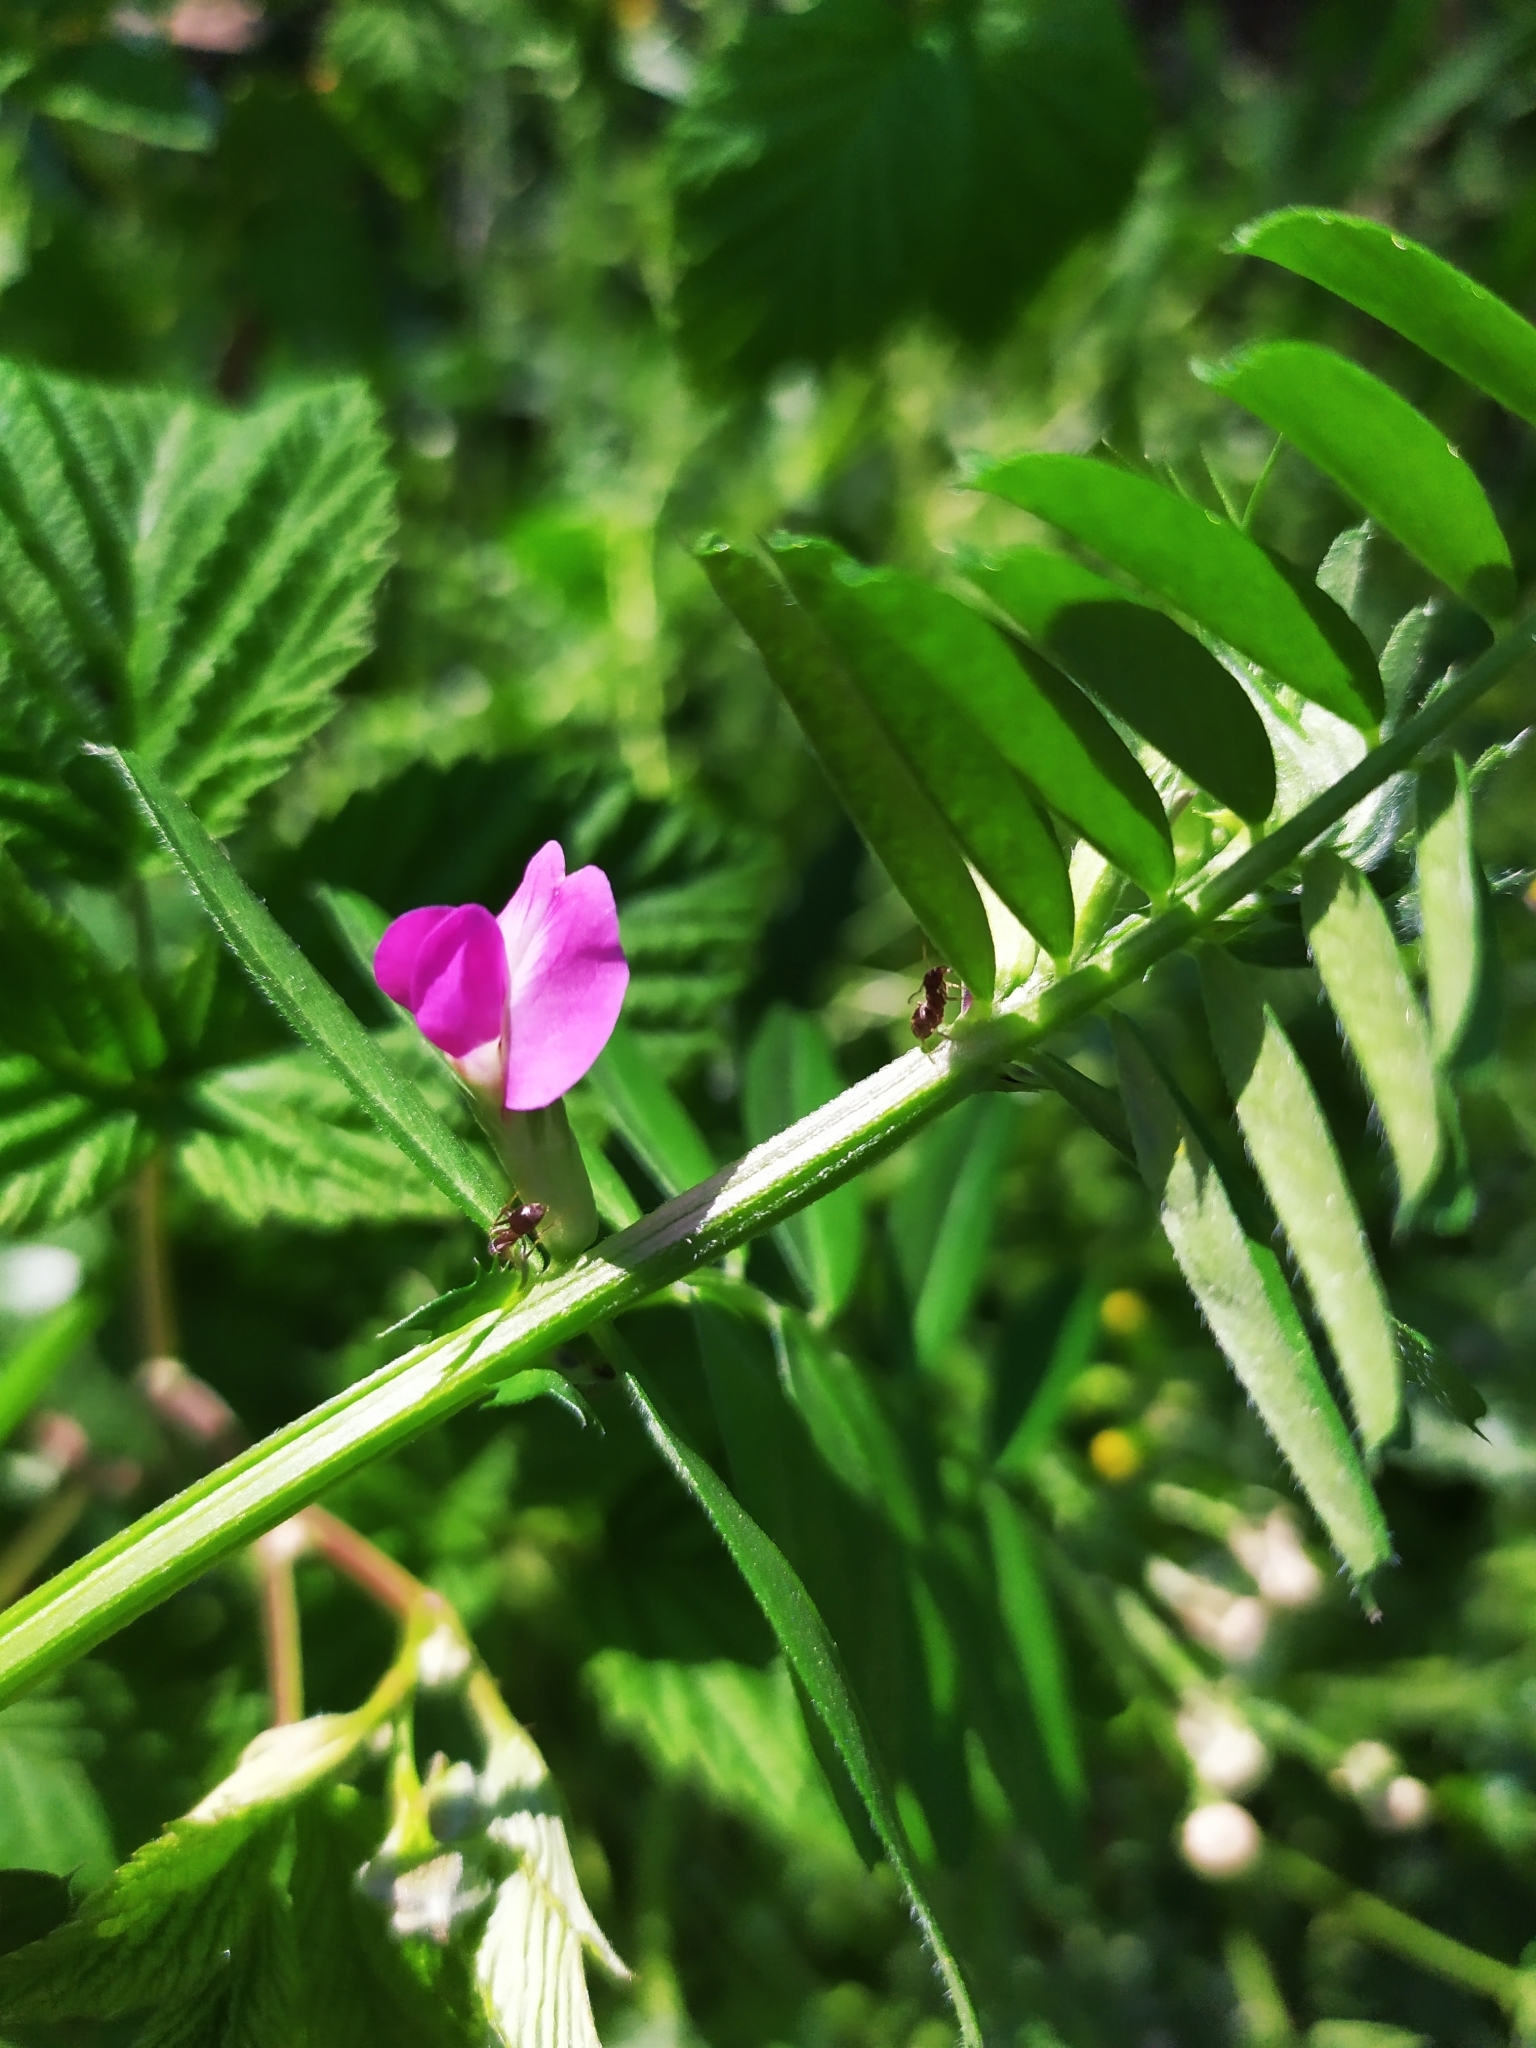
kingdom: Plantae
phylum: Tracheophyta
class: Magnoliopsida
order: Fabales
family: Fabaceae
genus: Vicia
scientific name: Vicia sativa
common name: Garden vetch
